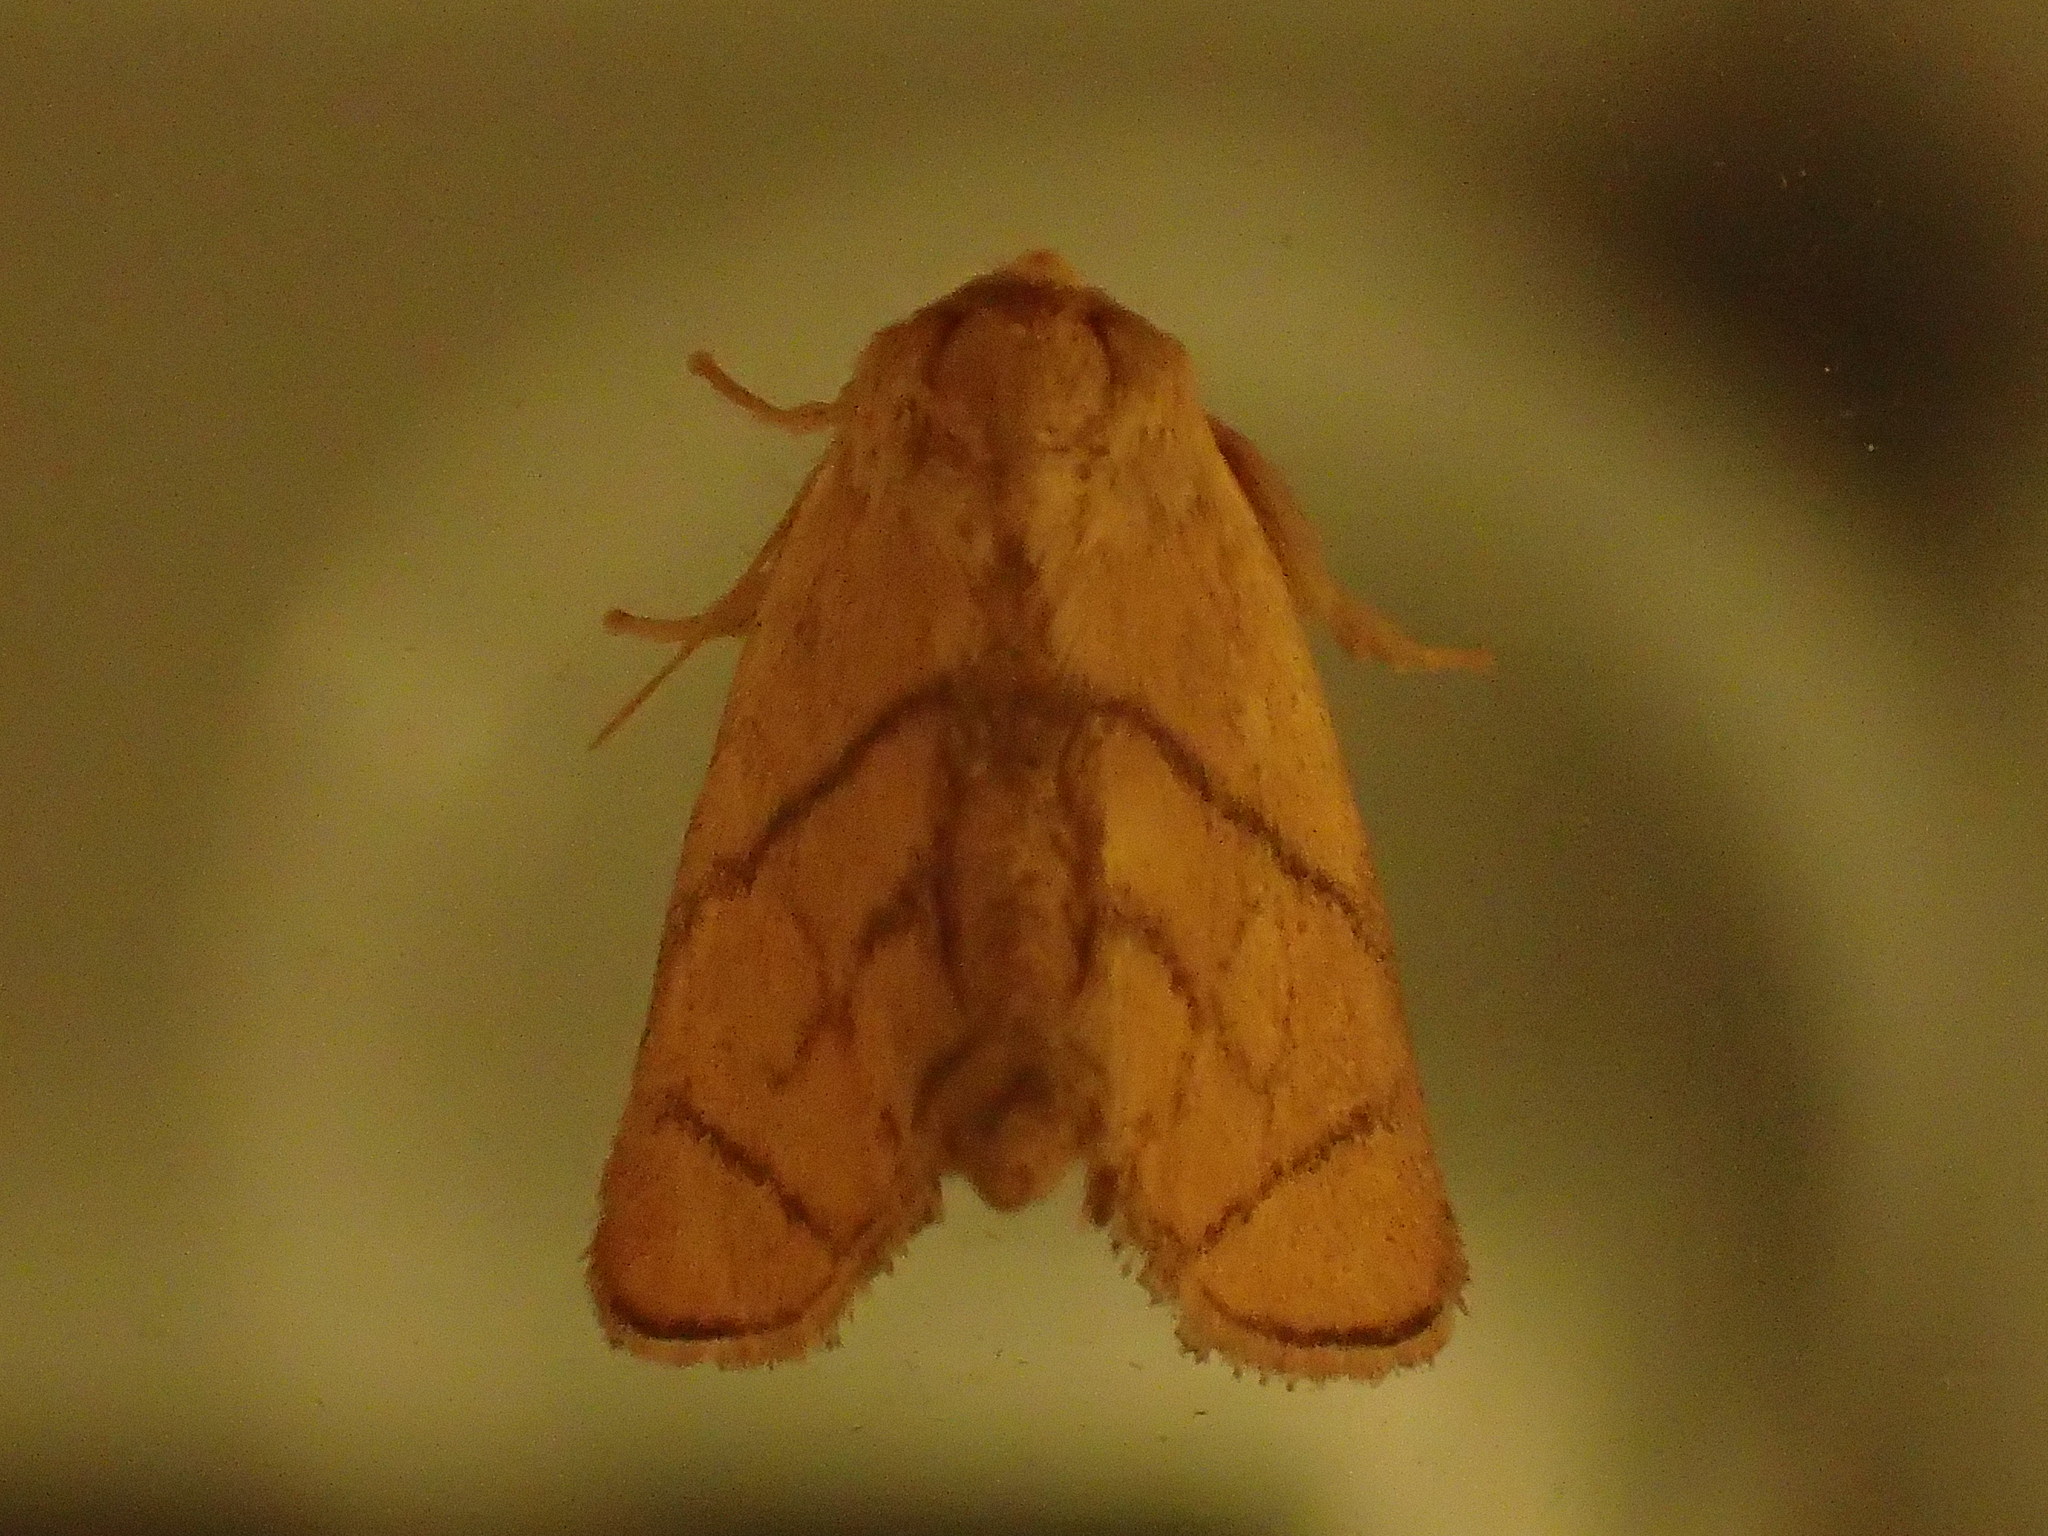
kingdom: Animalia
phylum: Arthropoda
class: Insecta
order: Lepidoptera
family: Limacodidae
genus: Apoda
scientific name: Apoda y-inversa
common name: Yellow-collared slug moth
